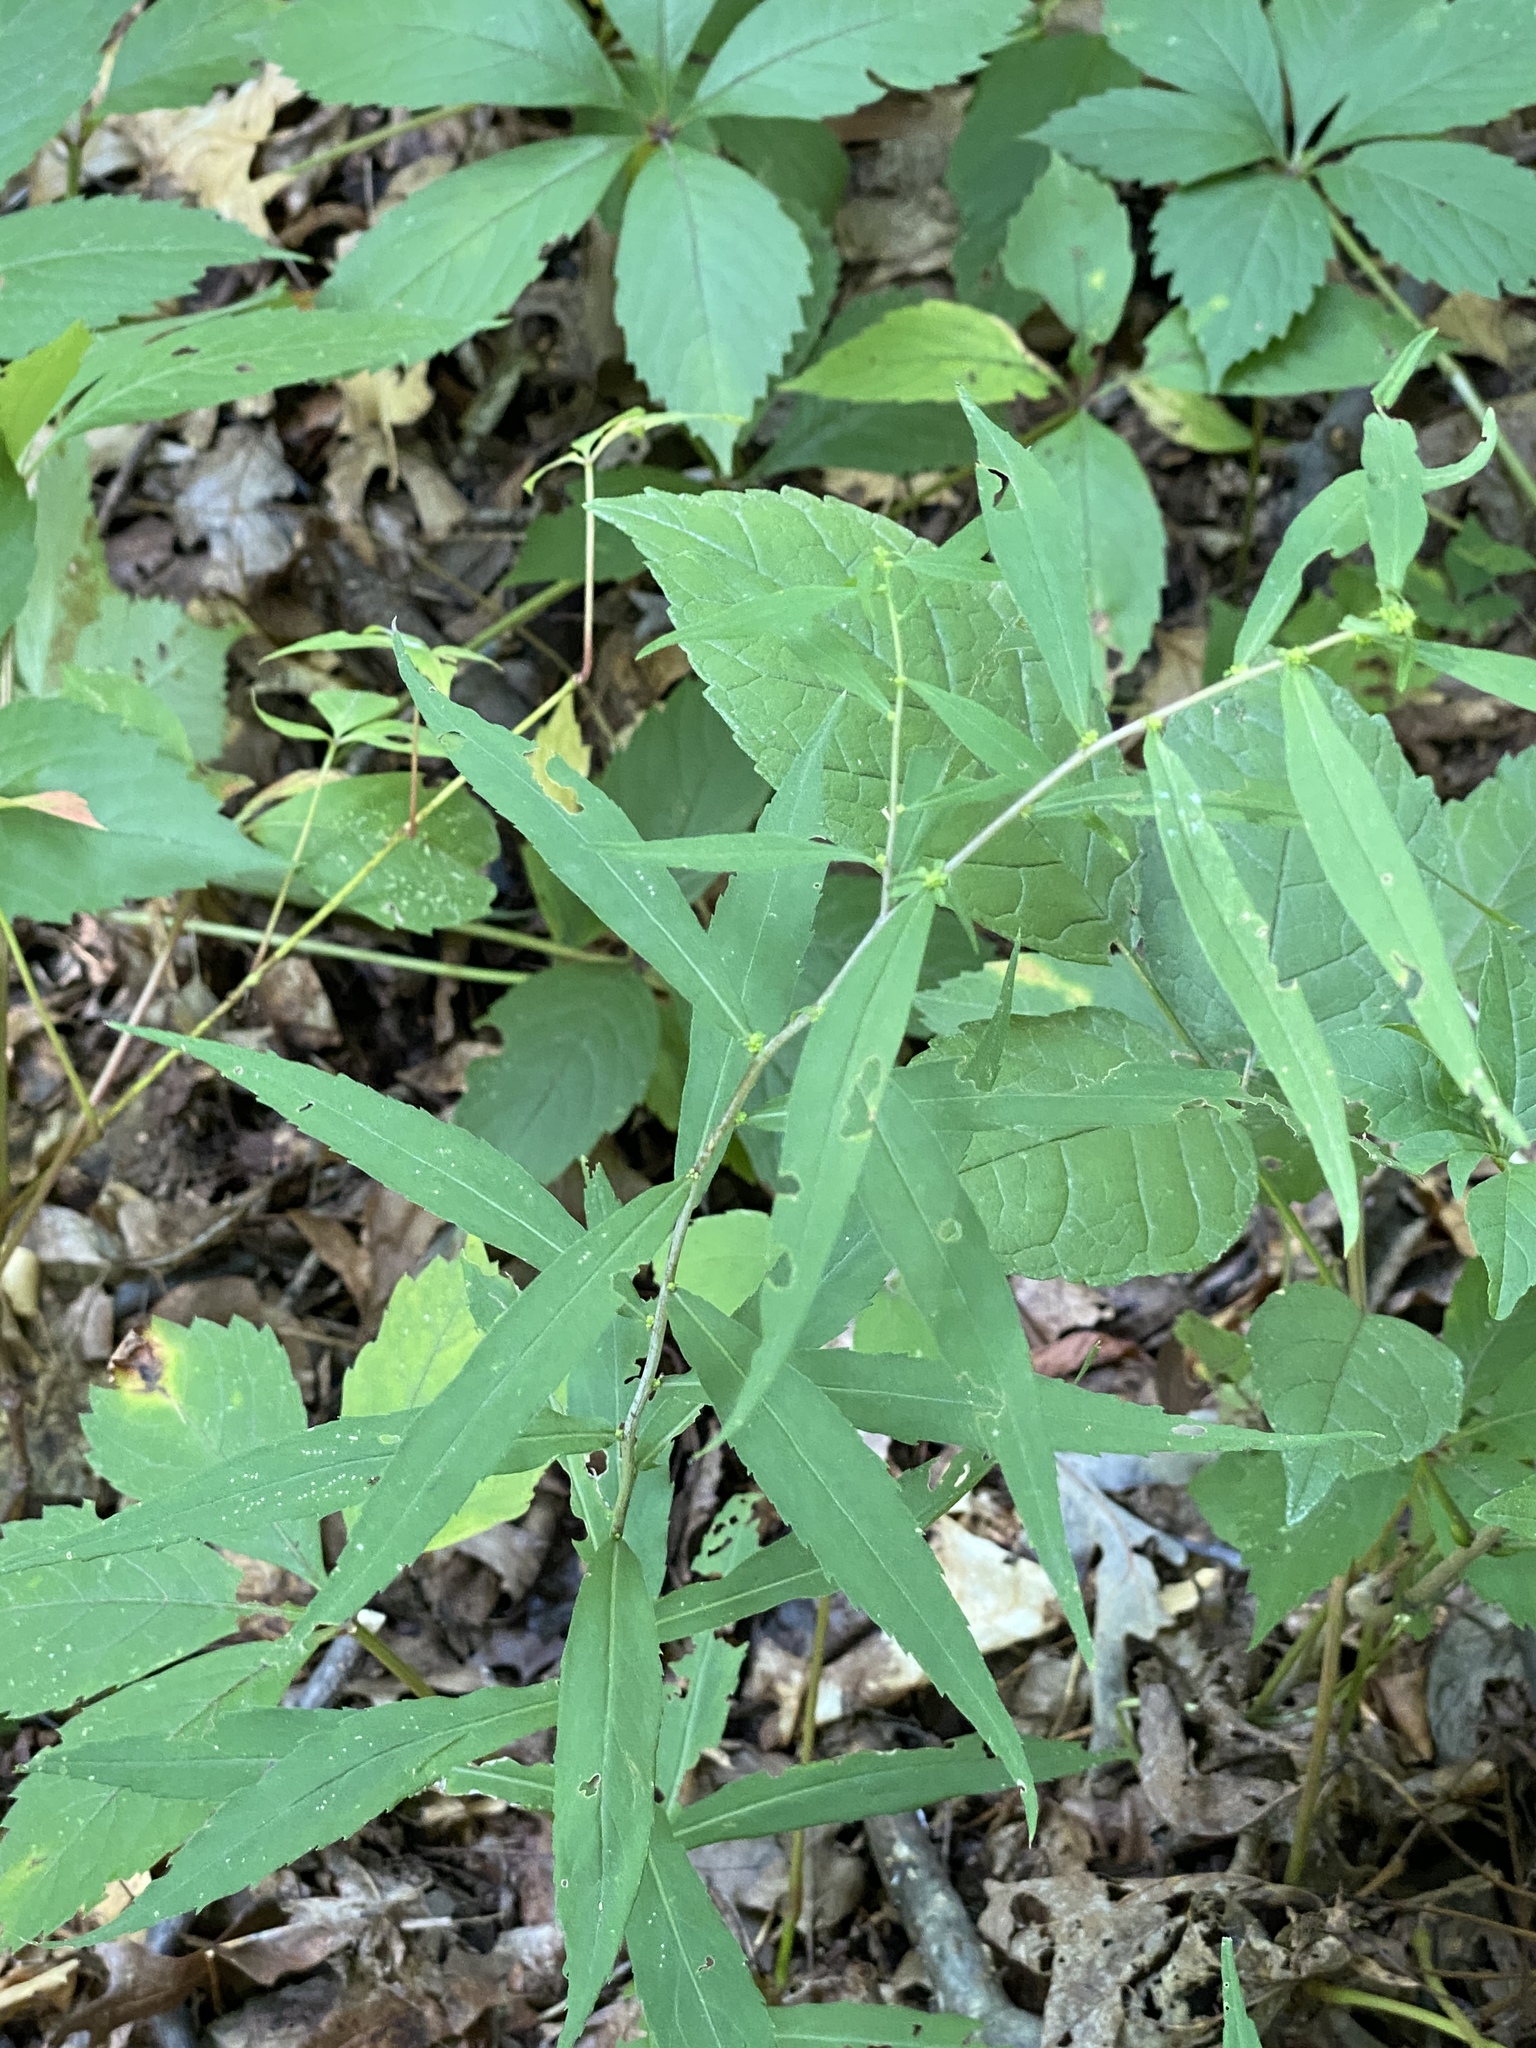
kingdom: Plantae
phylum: Tracheophyta
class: Magnoliopsida
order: Asterales
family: Asteraceae
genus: Solidago
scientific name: Solidago caesia
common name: Woodland goldenrod
